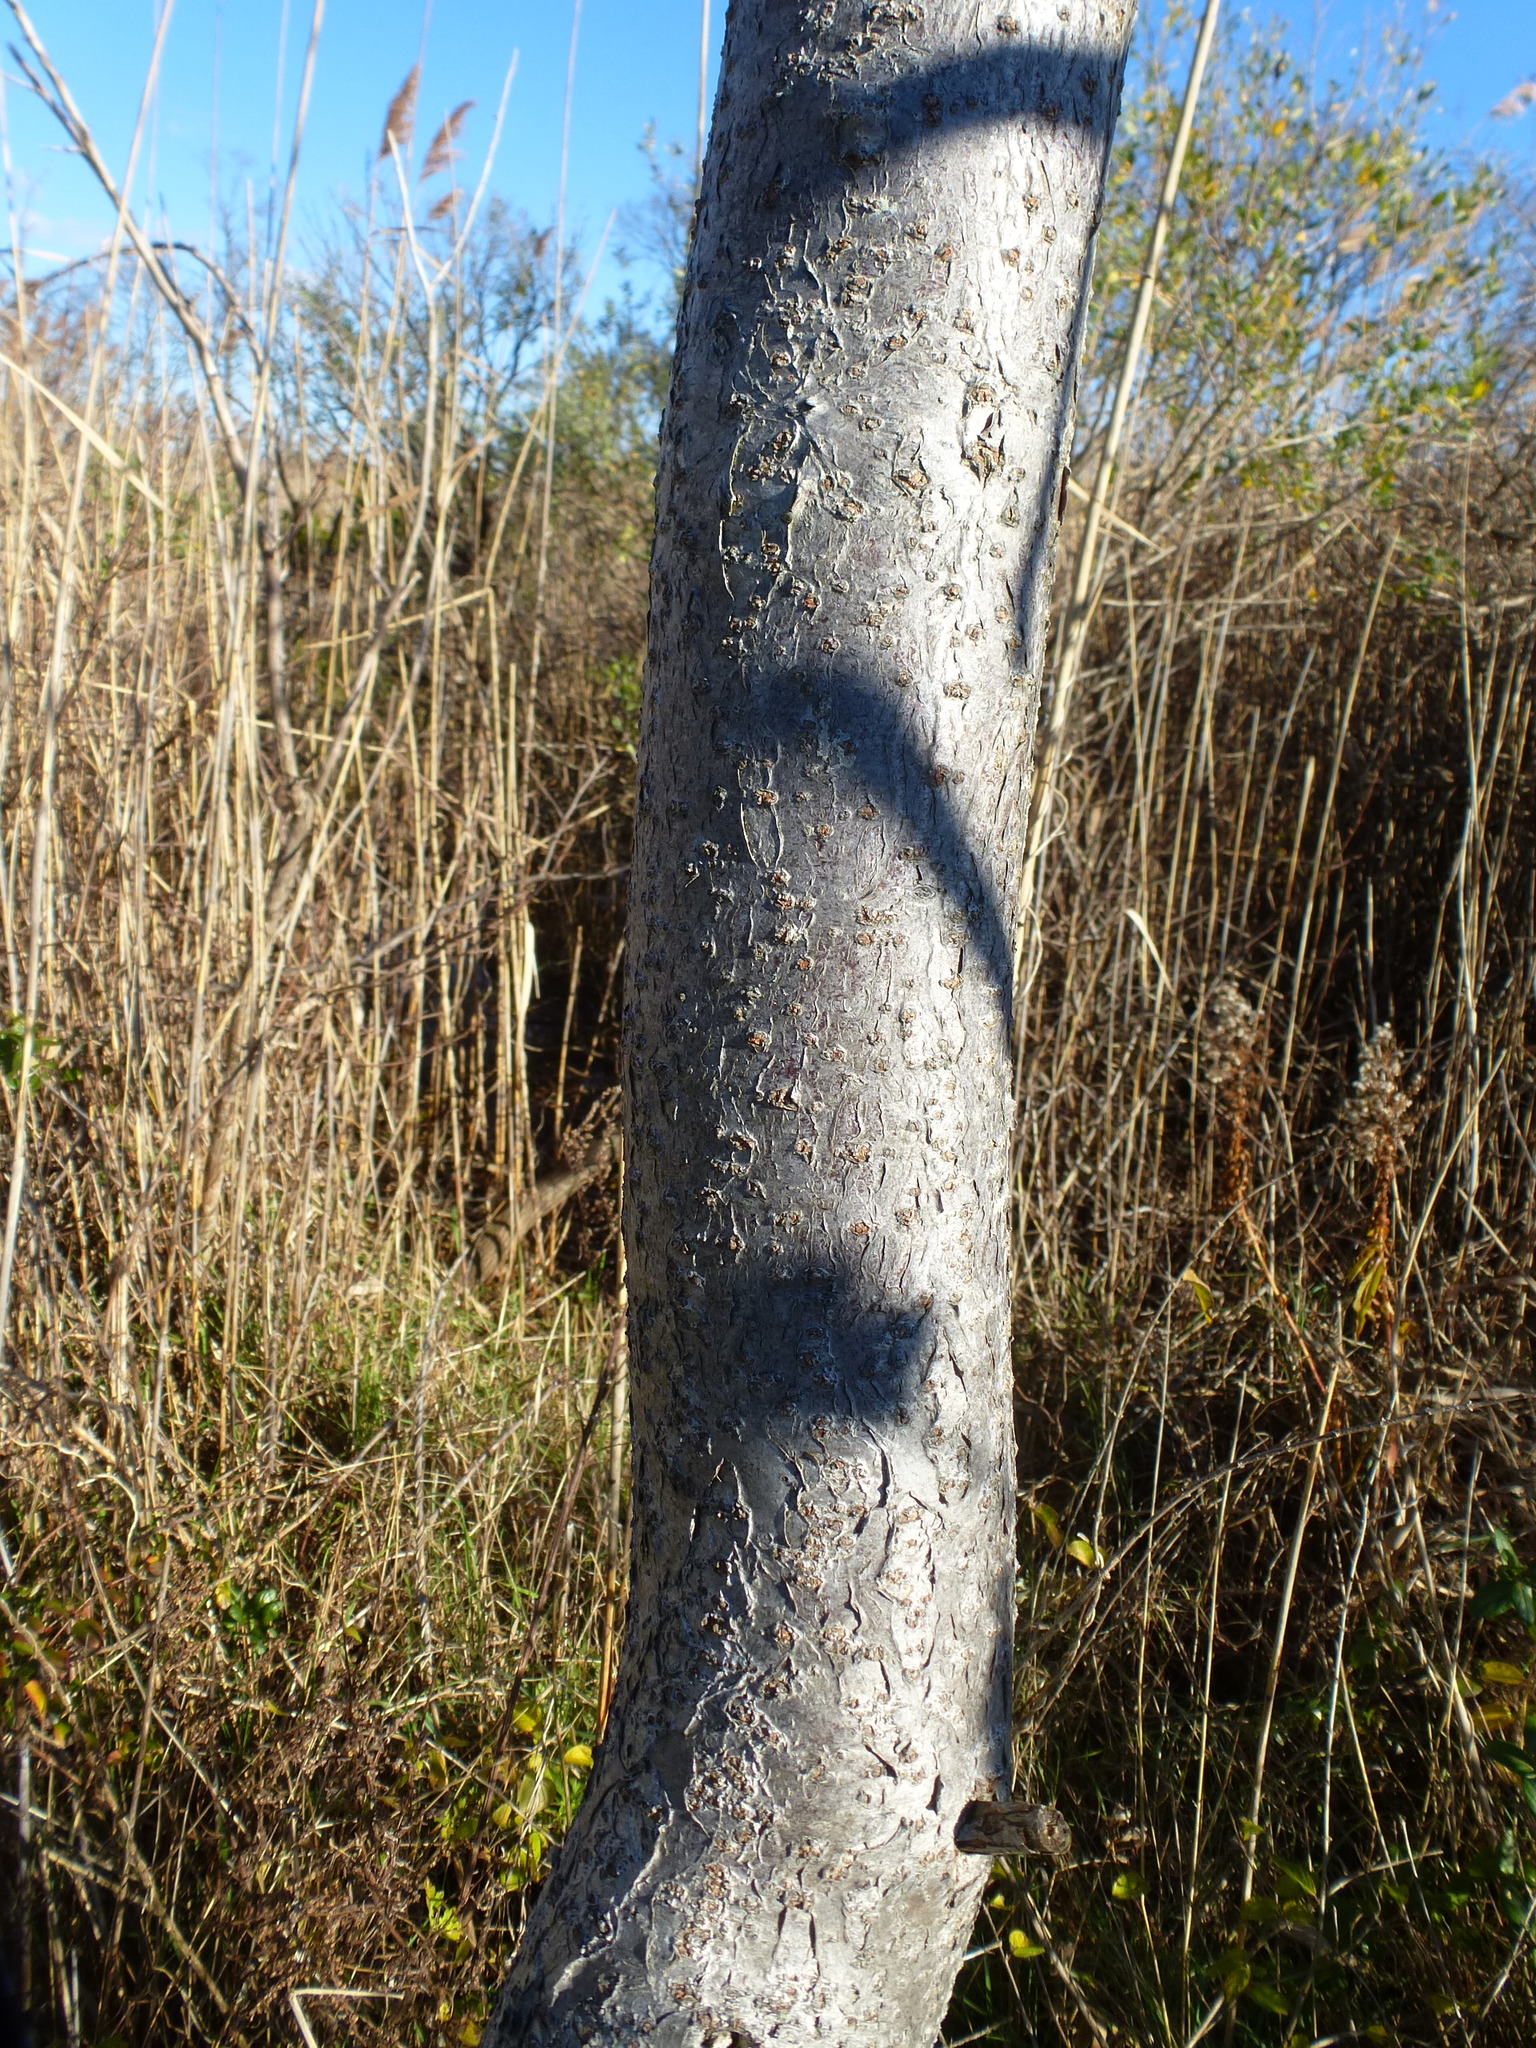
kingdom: Plantae
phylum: Tracheophyta
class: Magnoliopsida
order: Sapindales
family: Anacardiaceae
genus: Rhus
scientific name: Rhus glabra
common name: Scarlet sumac
